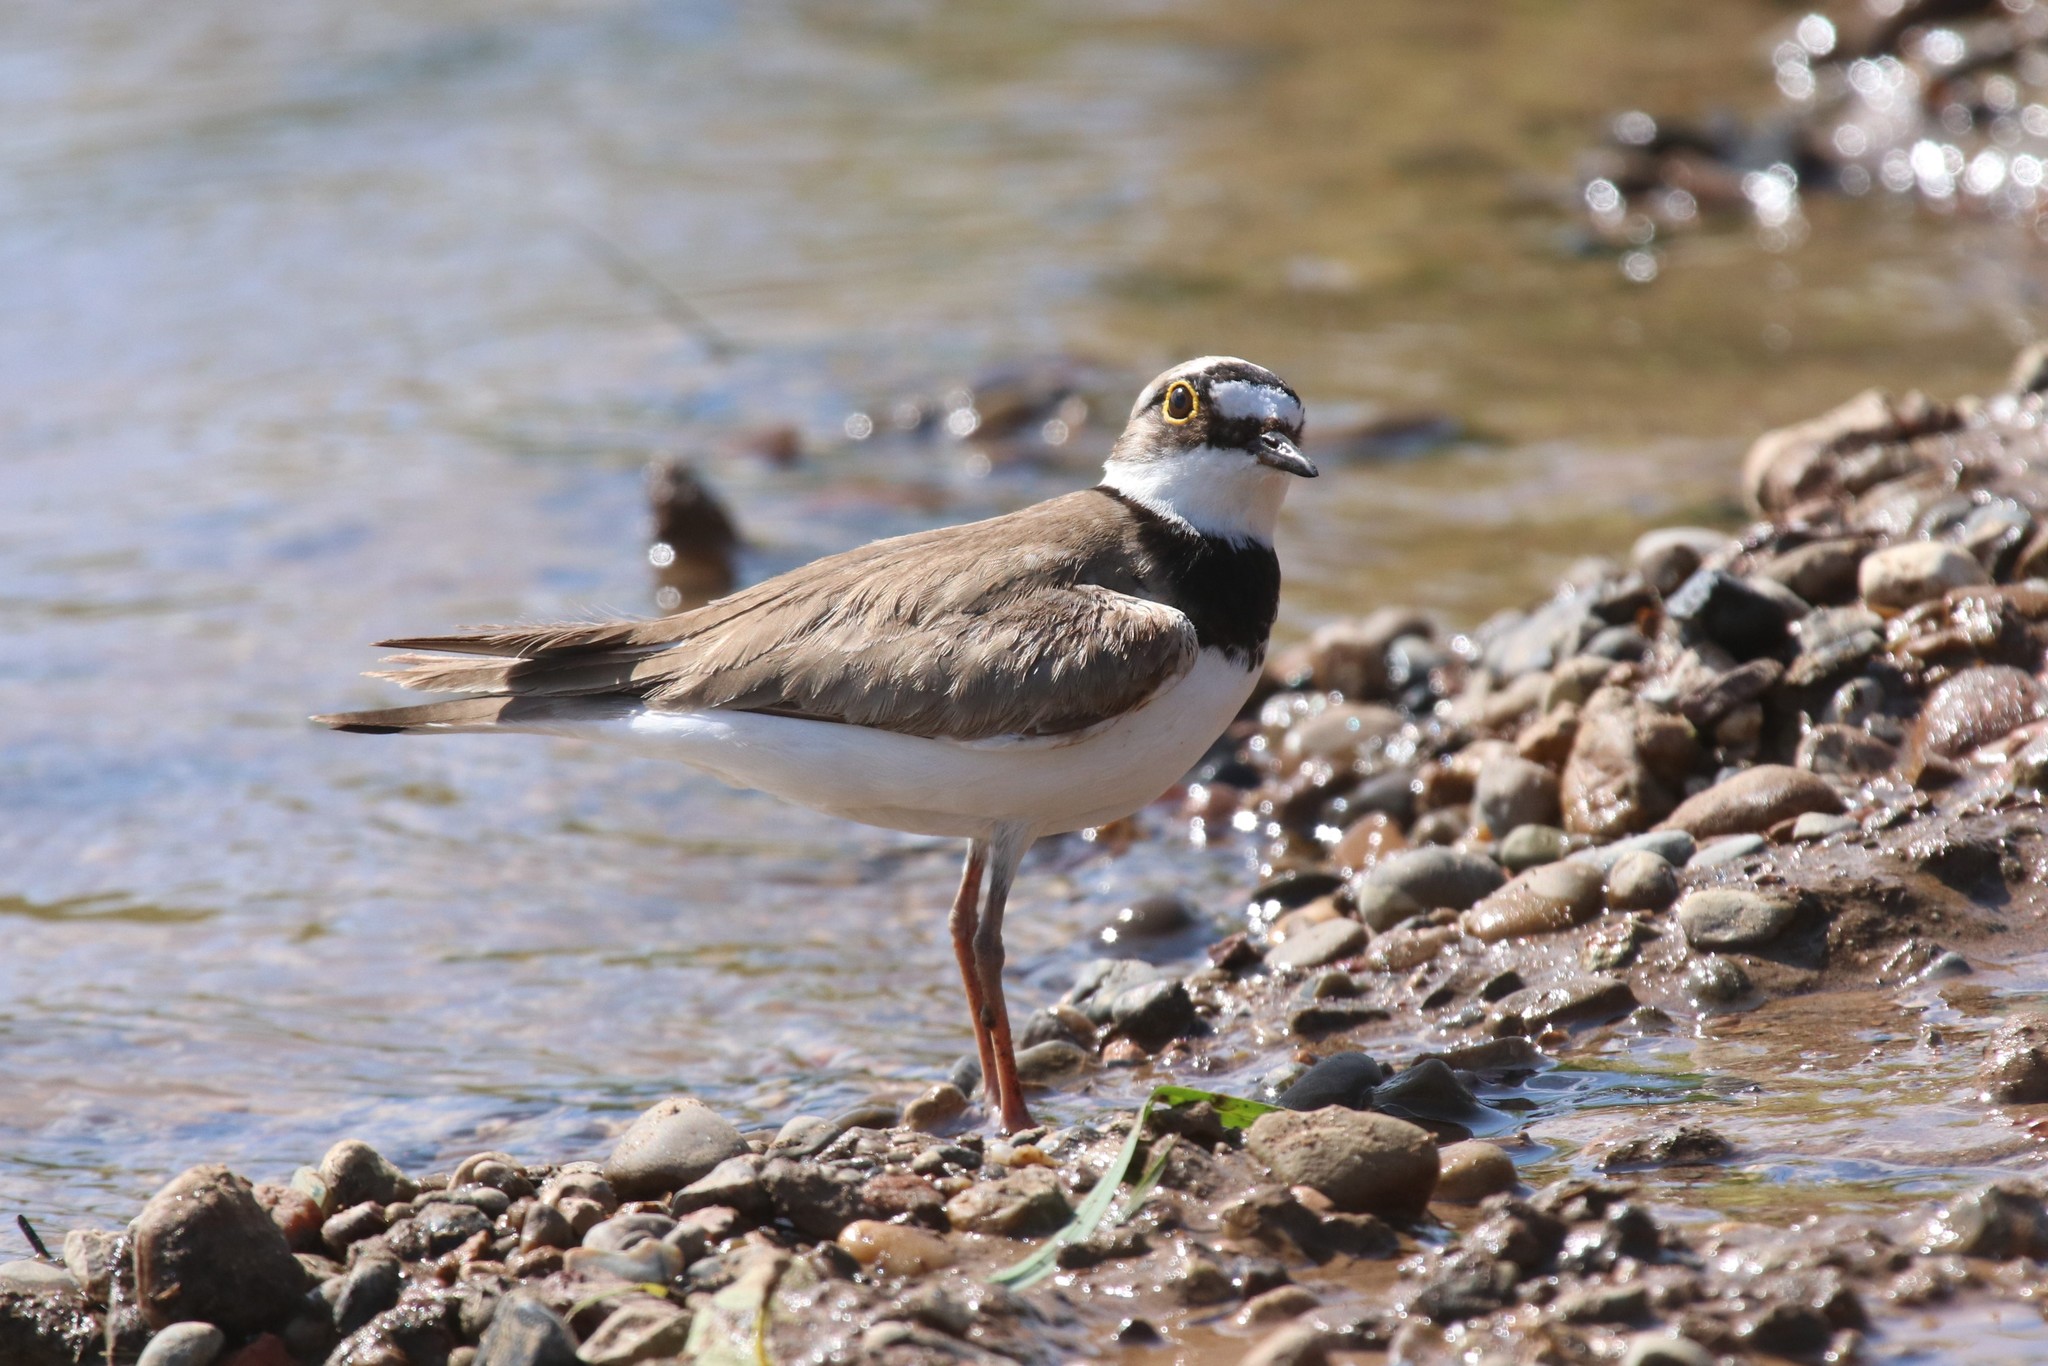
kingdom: Animalia
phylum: Chordata
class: Aves
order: Charadriiformes
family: Charadriidae
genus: Charadrius
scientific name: Charadrius dubius
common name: Little ringed plover
